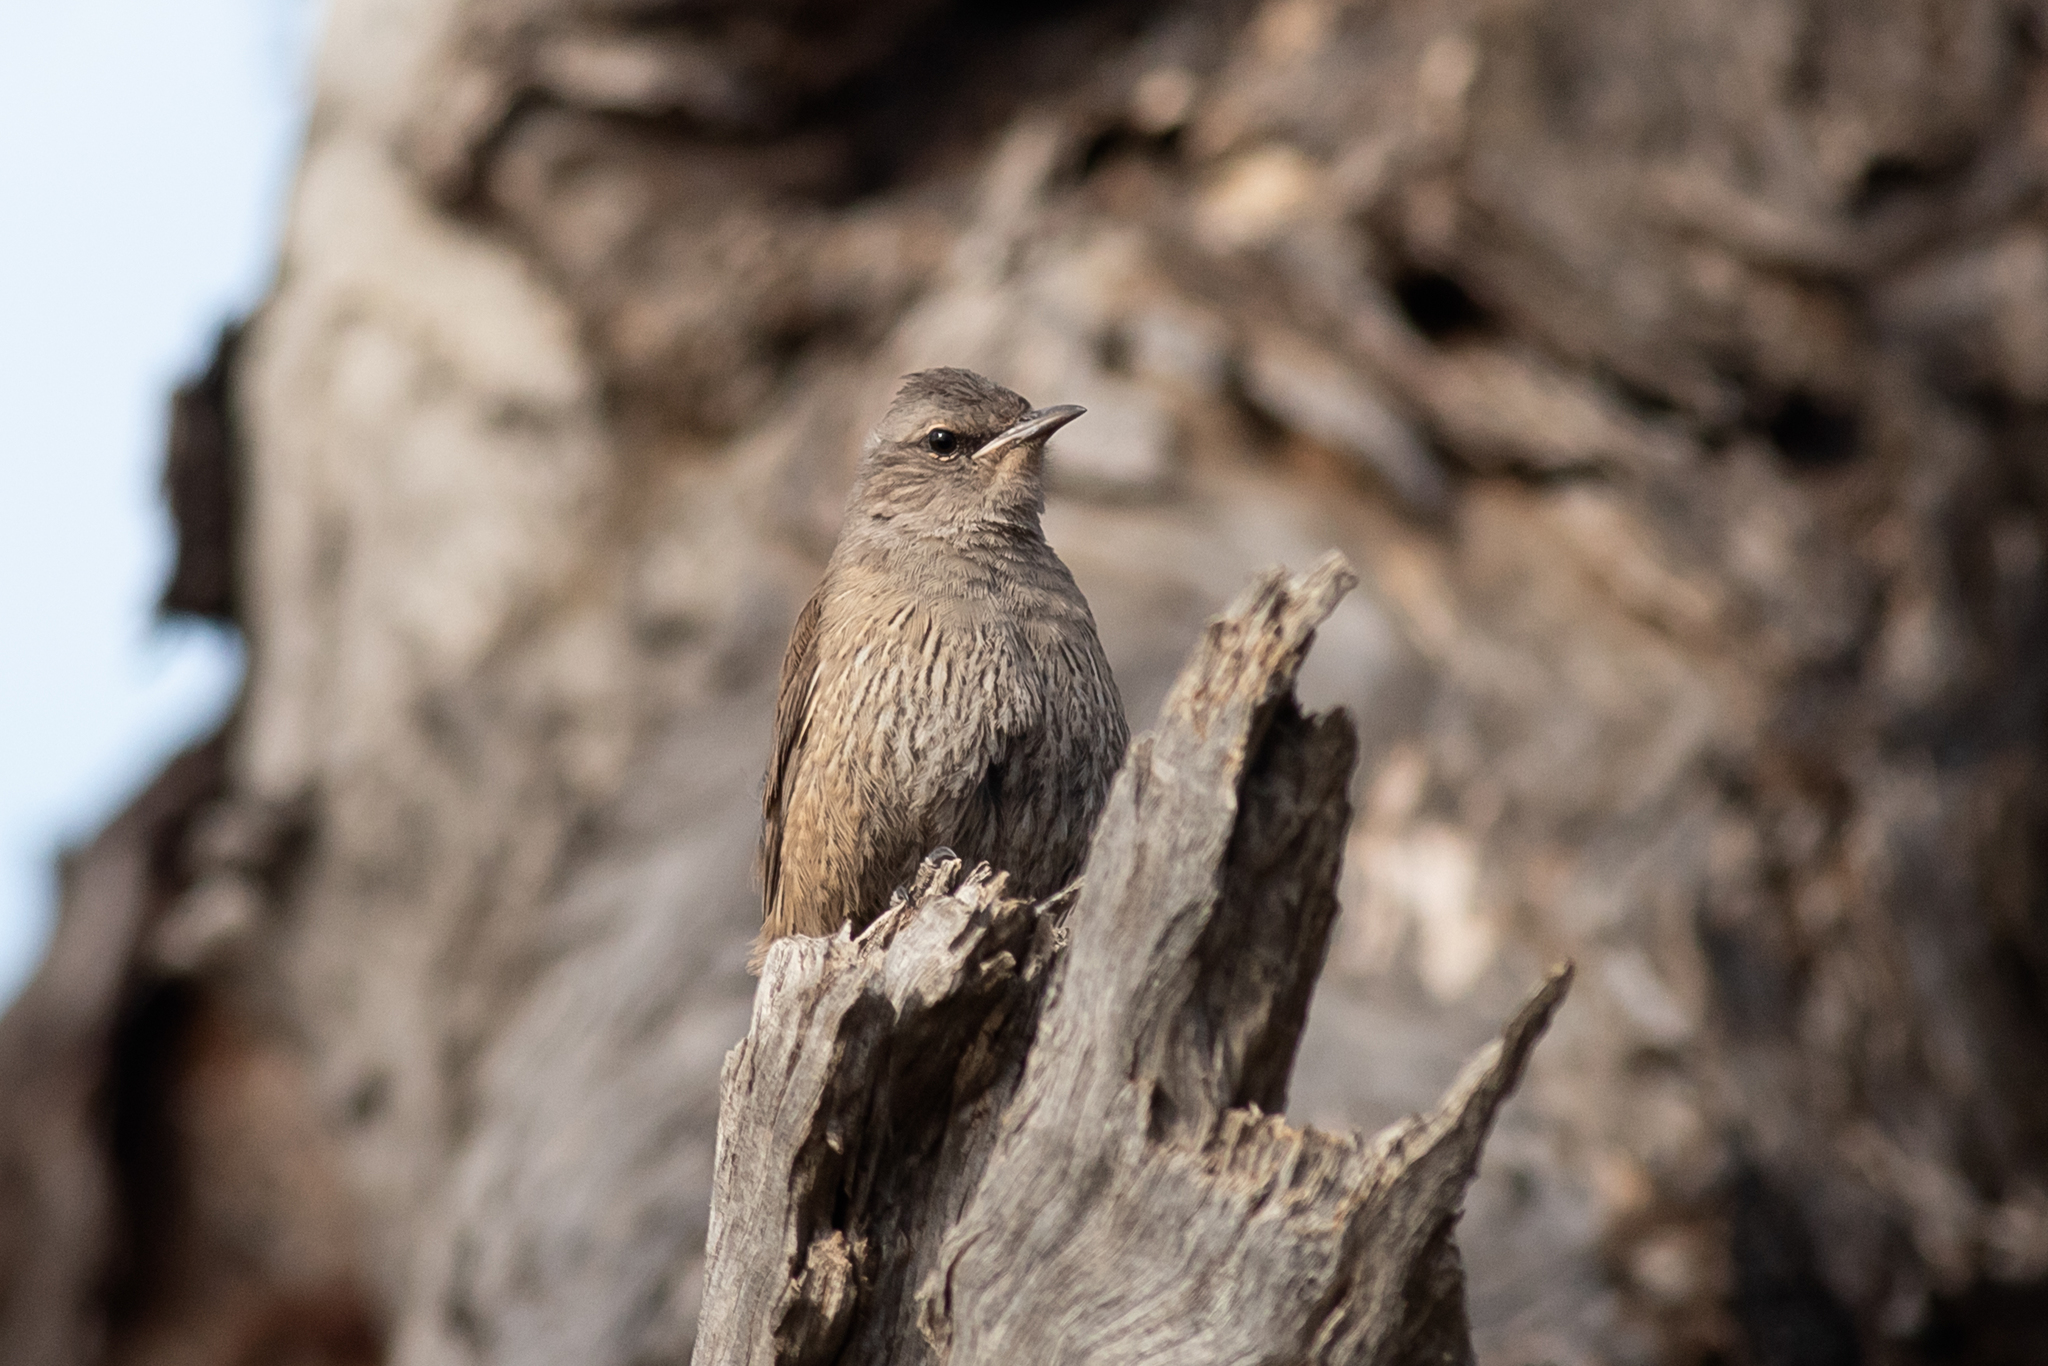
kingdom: Animalia
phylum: Chordata
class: Aves
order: Passeriformes
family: Climacteridae
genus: Climacteris
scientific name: Climacteris picumnus
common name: Brown treecreeper
